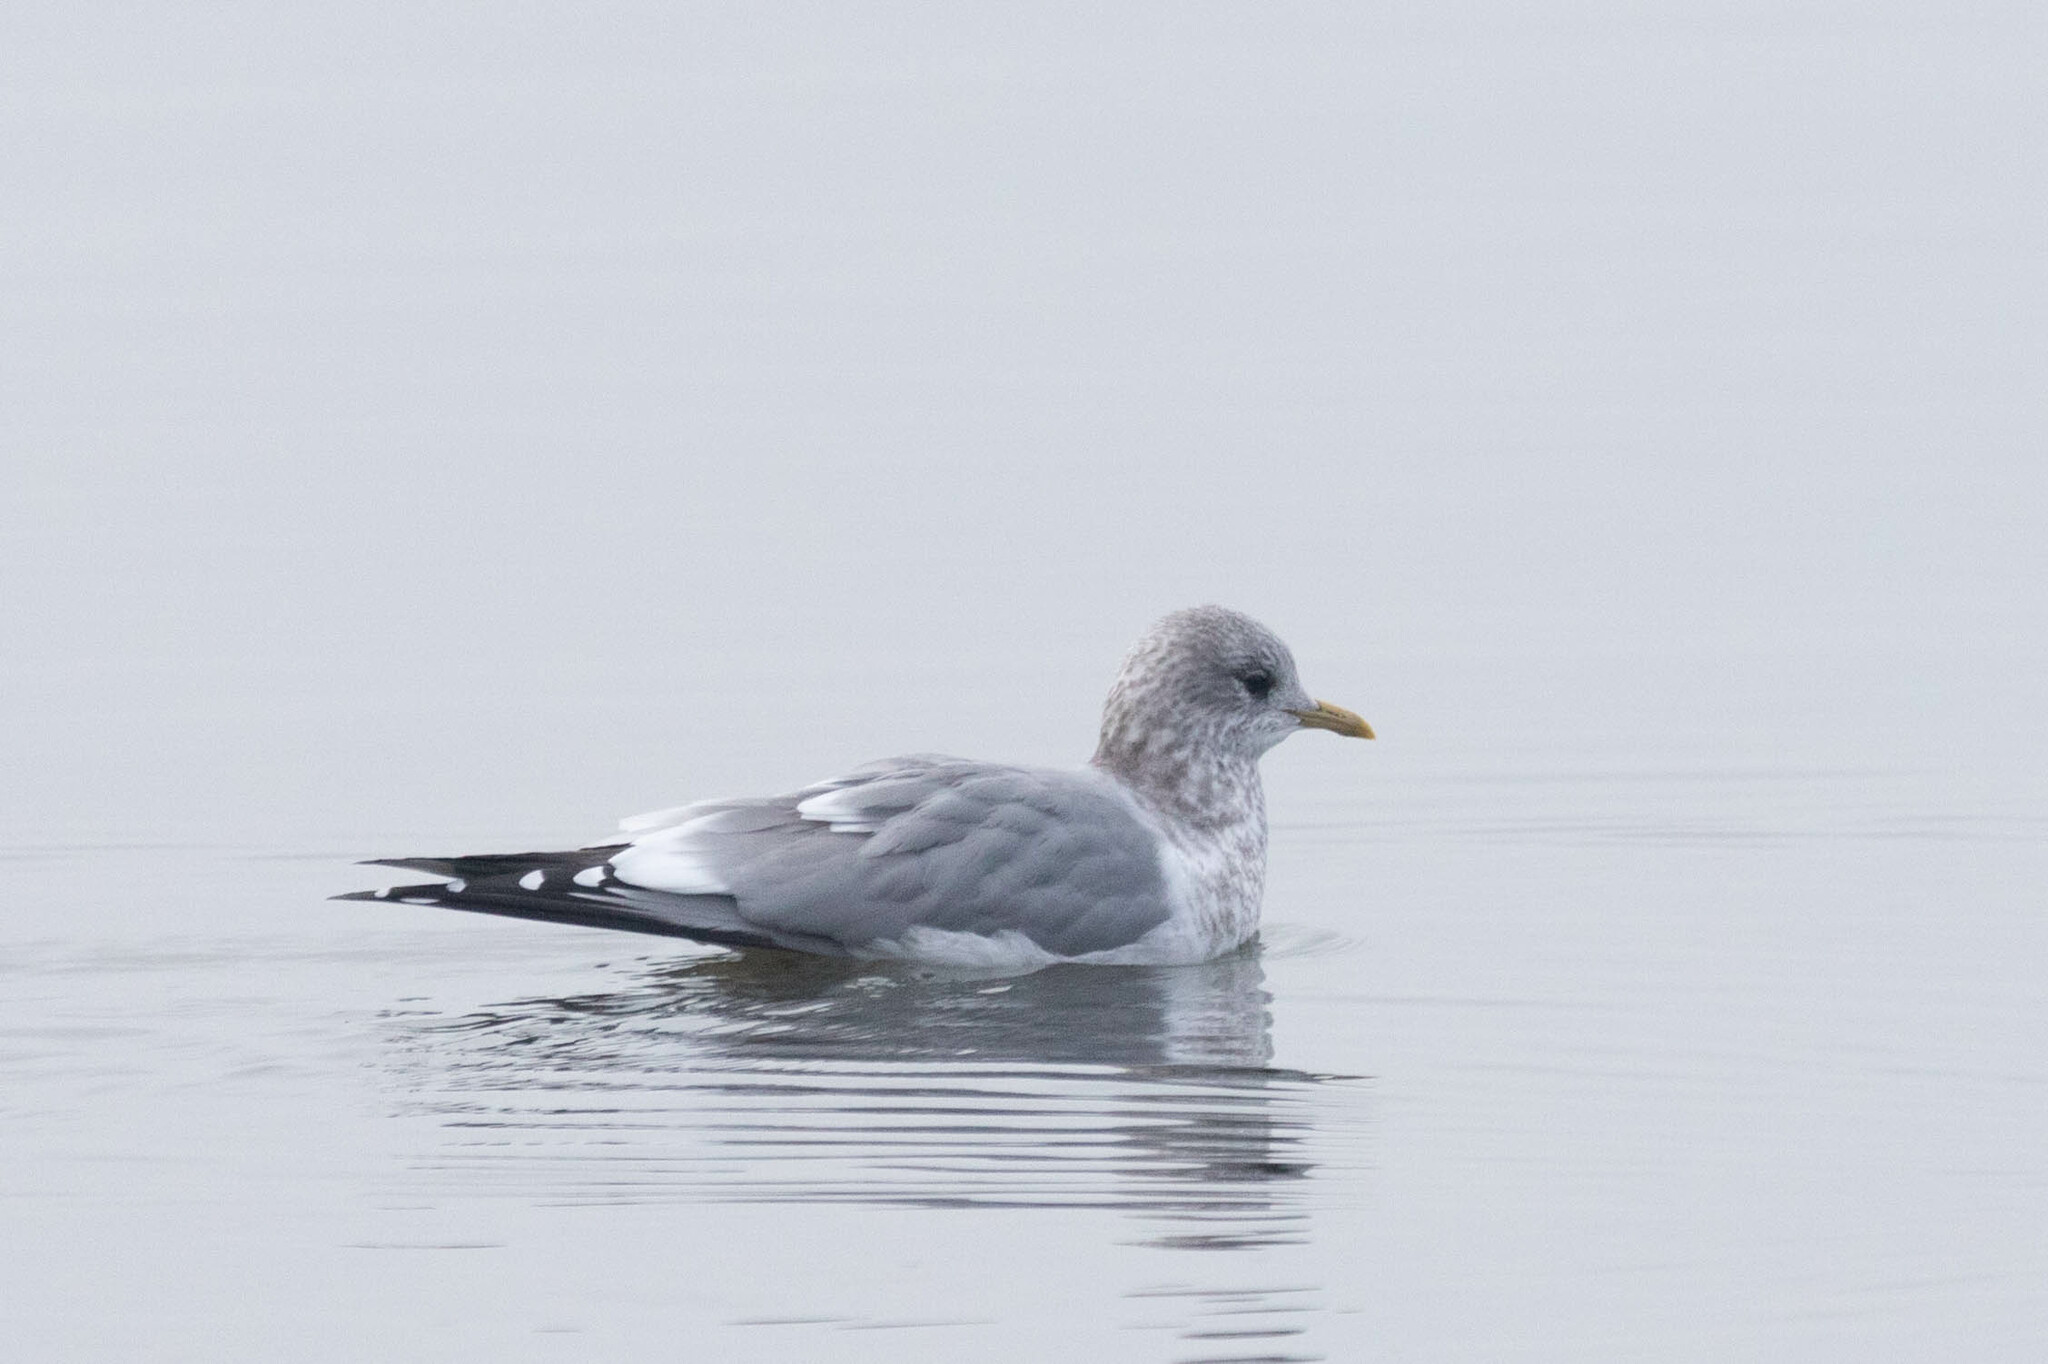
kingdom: Animalia
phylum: Chordata
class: Aves
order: Charadriiformes
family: Laridae
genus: Larus
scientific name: Larus brachyrhynchus
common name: Short-billed gull
